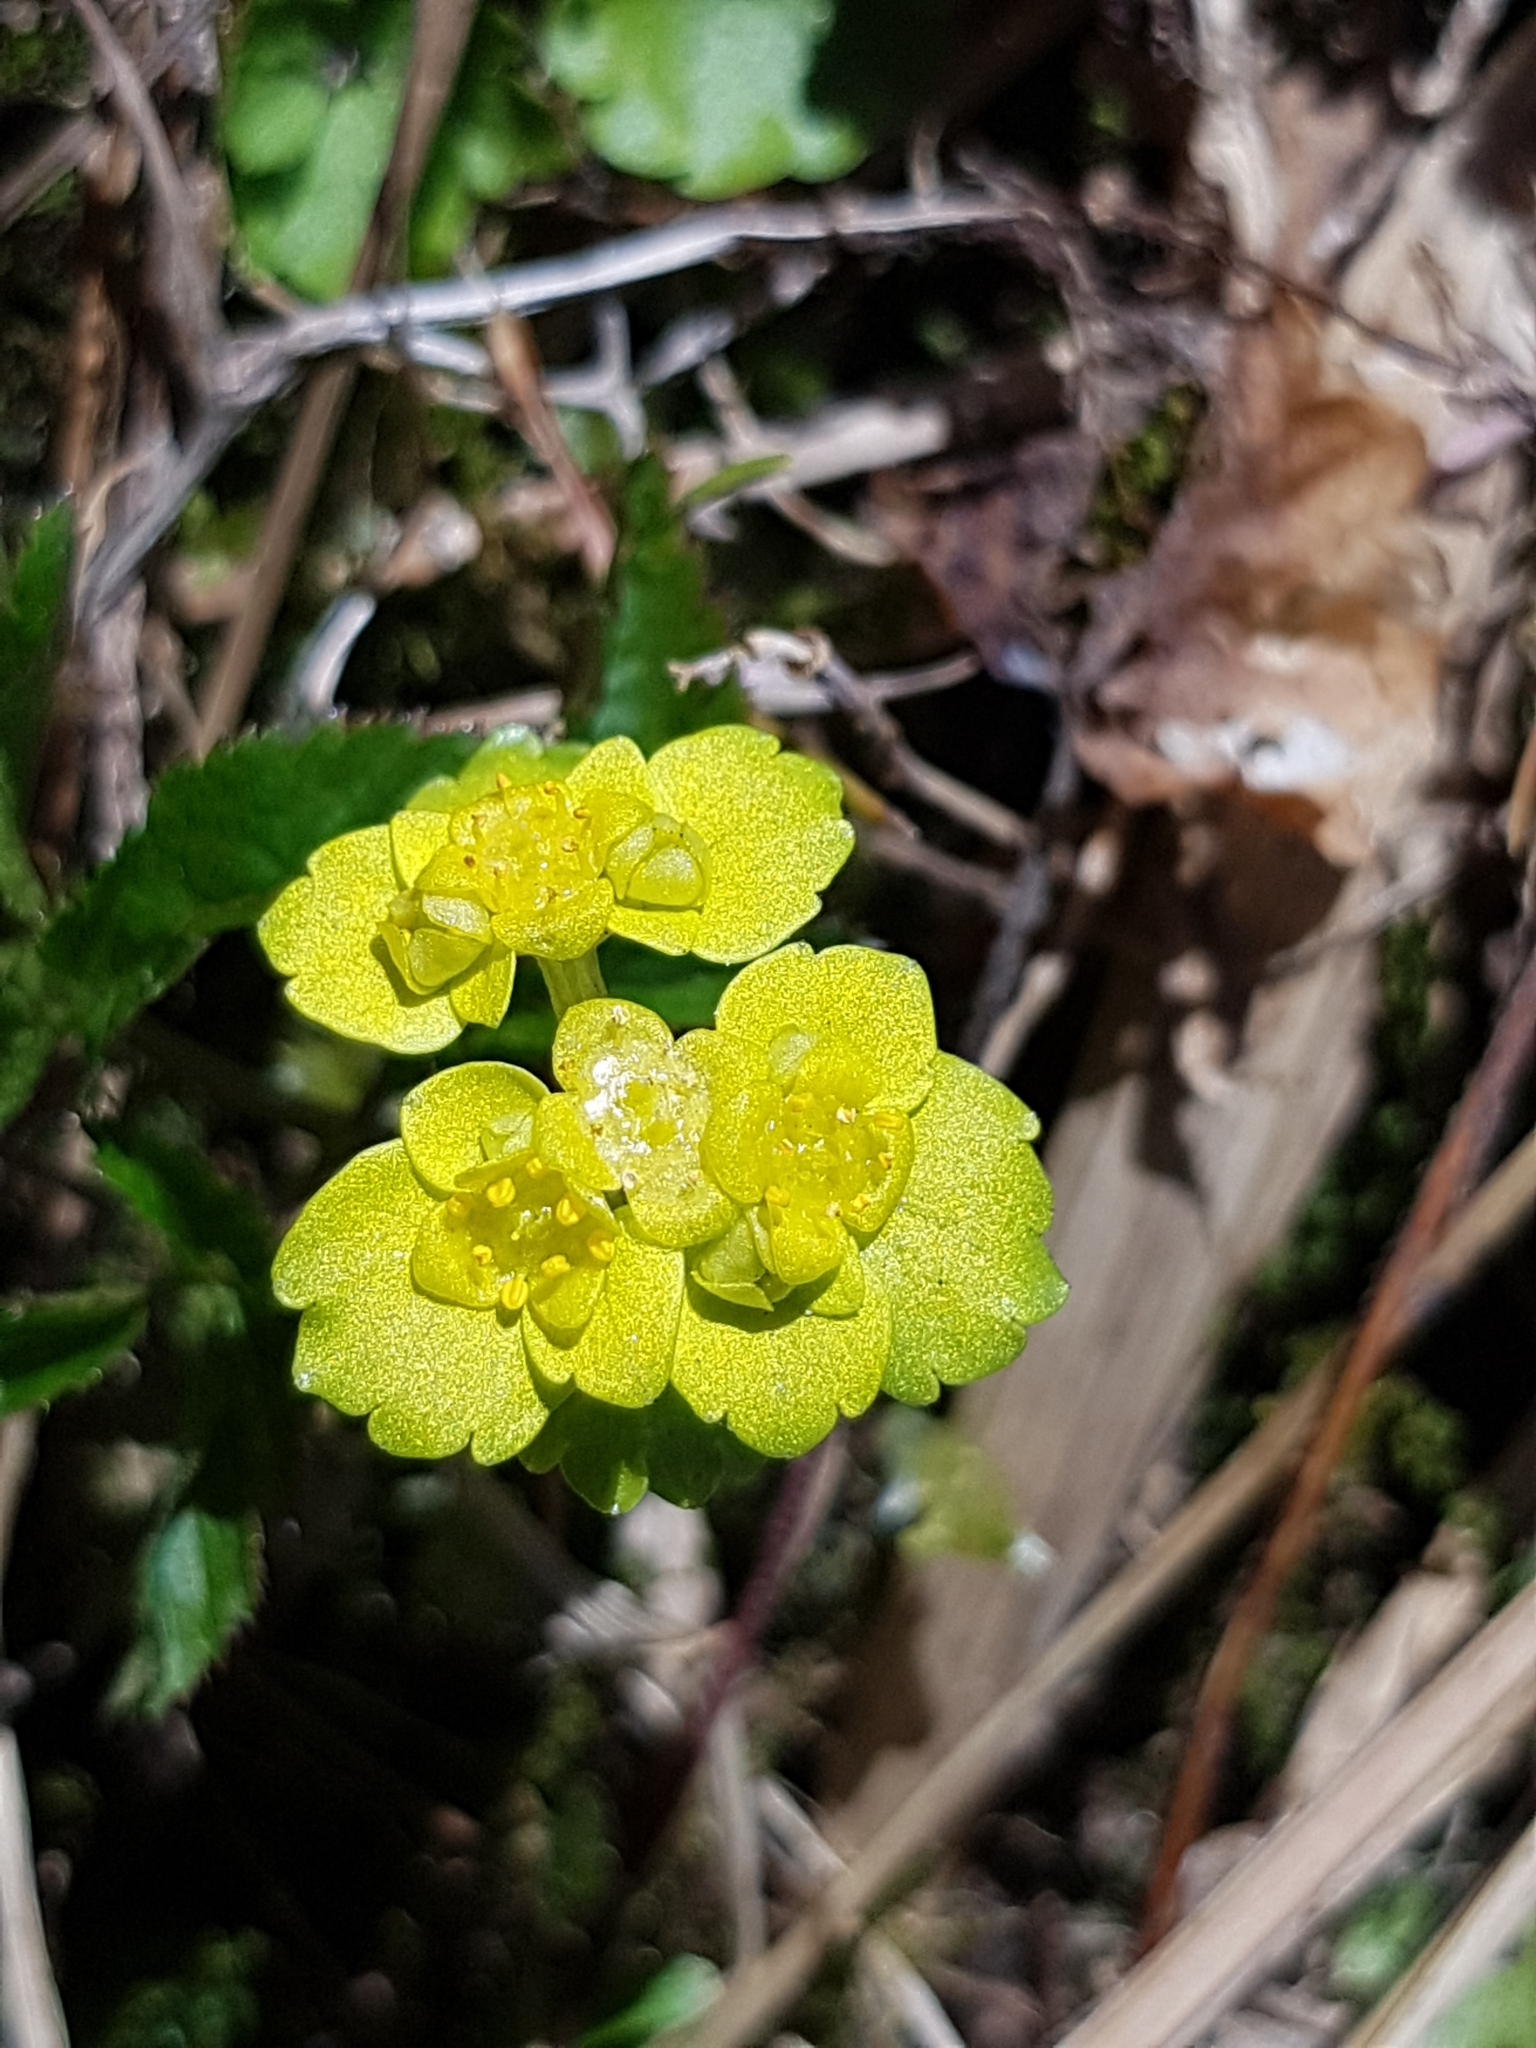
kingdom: Plantae
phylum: Tracheophyta
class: Magnoliopsida
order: Saxifragales
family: Saxifragaceae
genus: Chrysosplenium
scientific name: Chrysosplenium alternifolium
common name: Alternate-leaved golden-saxifrage
